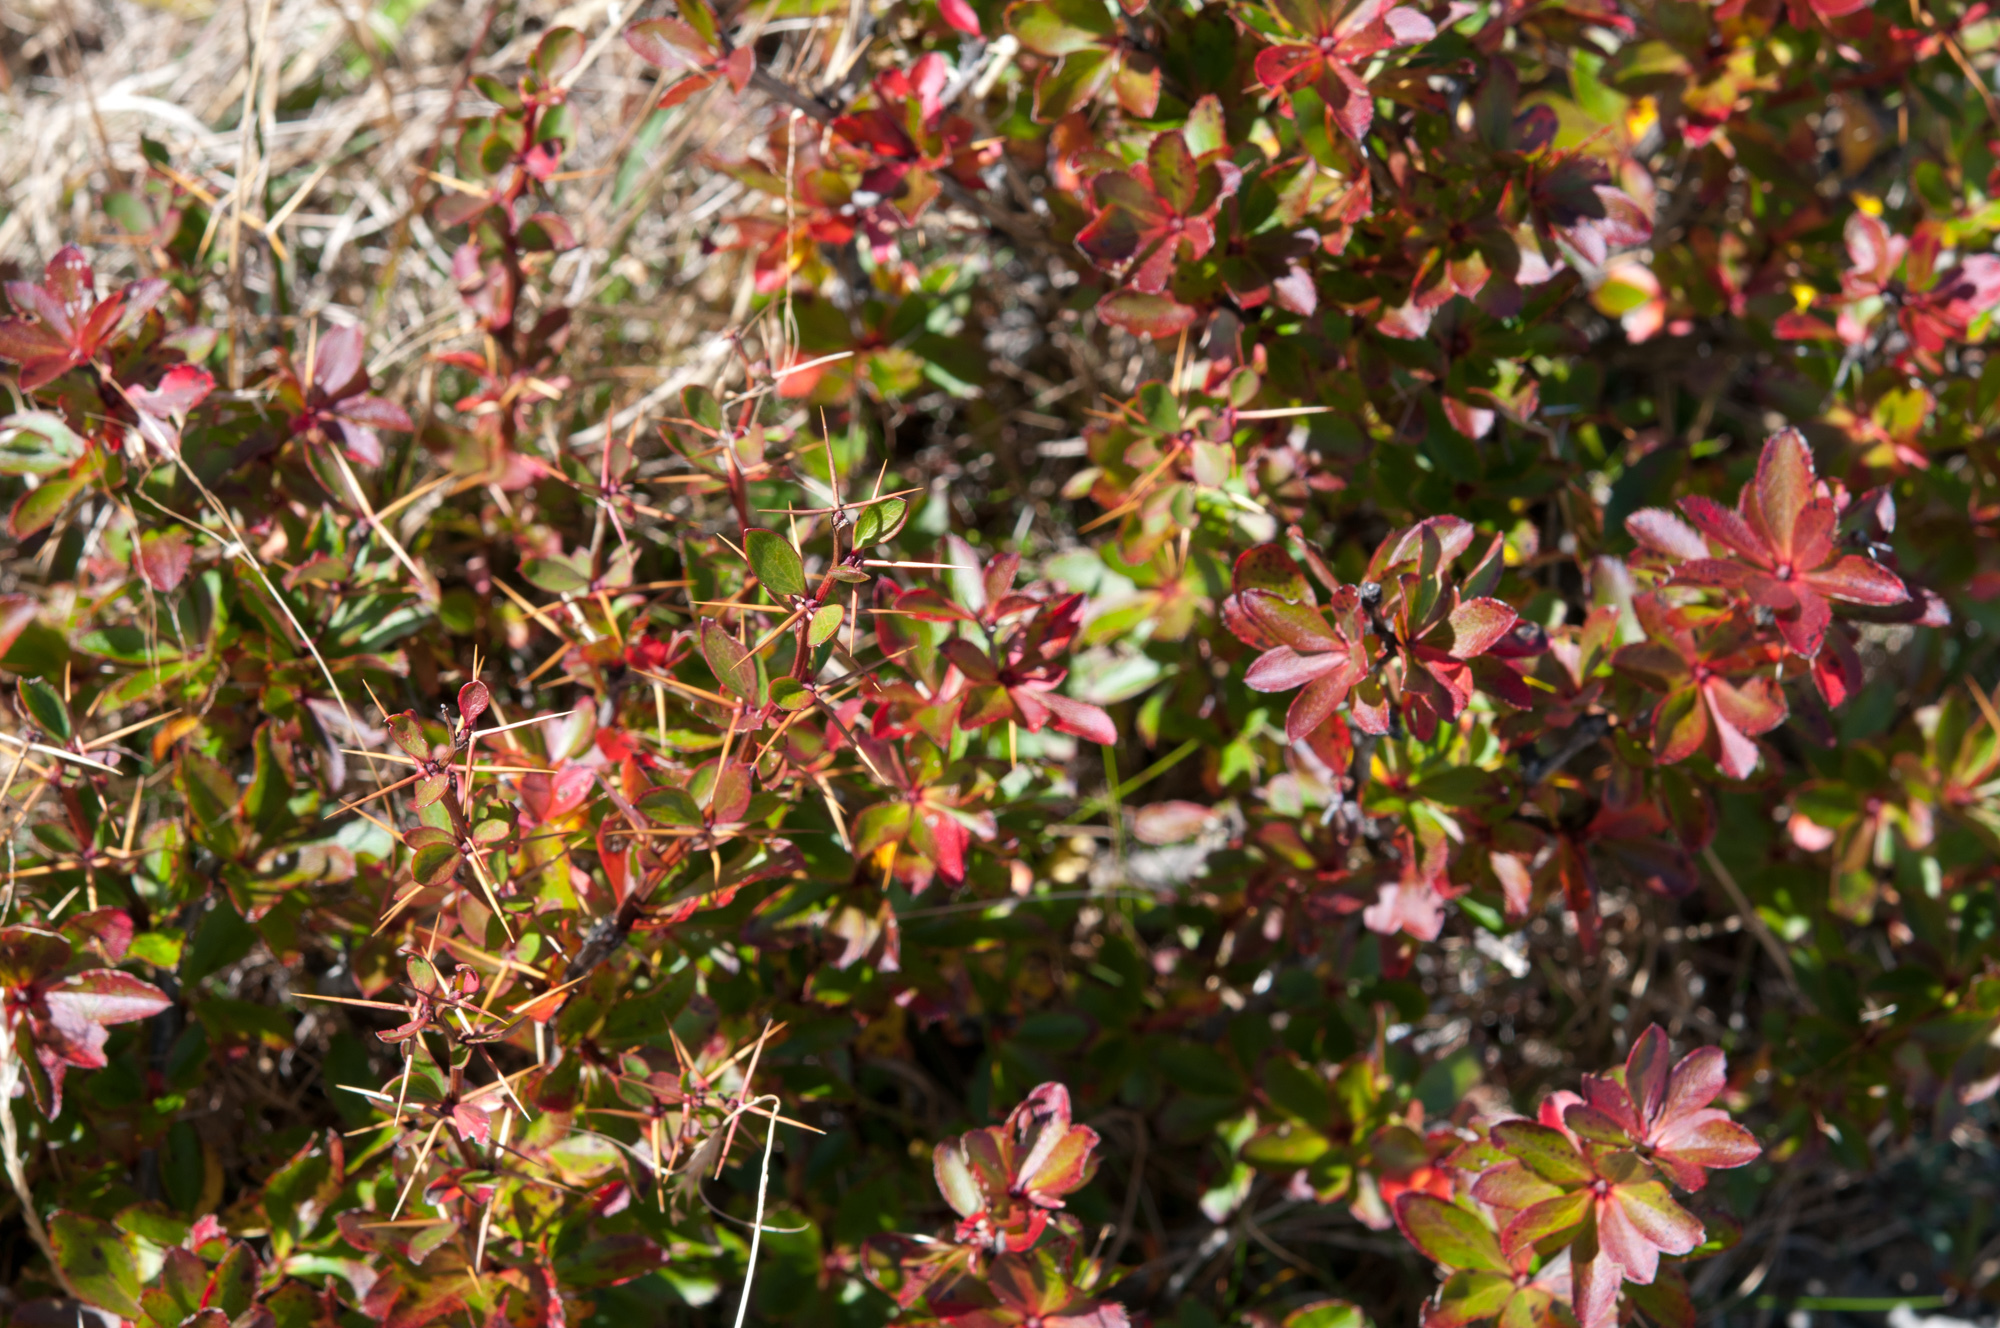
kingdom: Plantae
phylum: Tracheophyta
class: Magnoliopsida
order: Ranunculales
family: Berberidaceae
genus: Berberis
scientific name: Berberis morrisonensis
